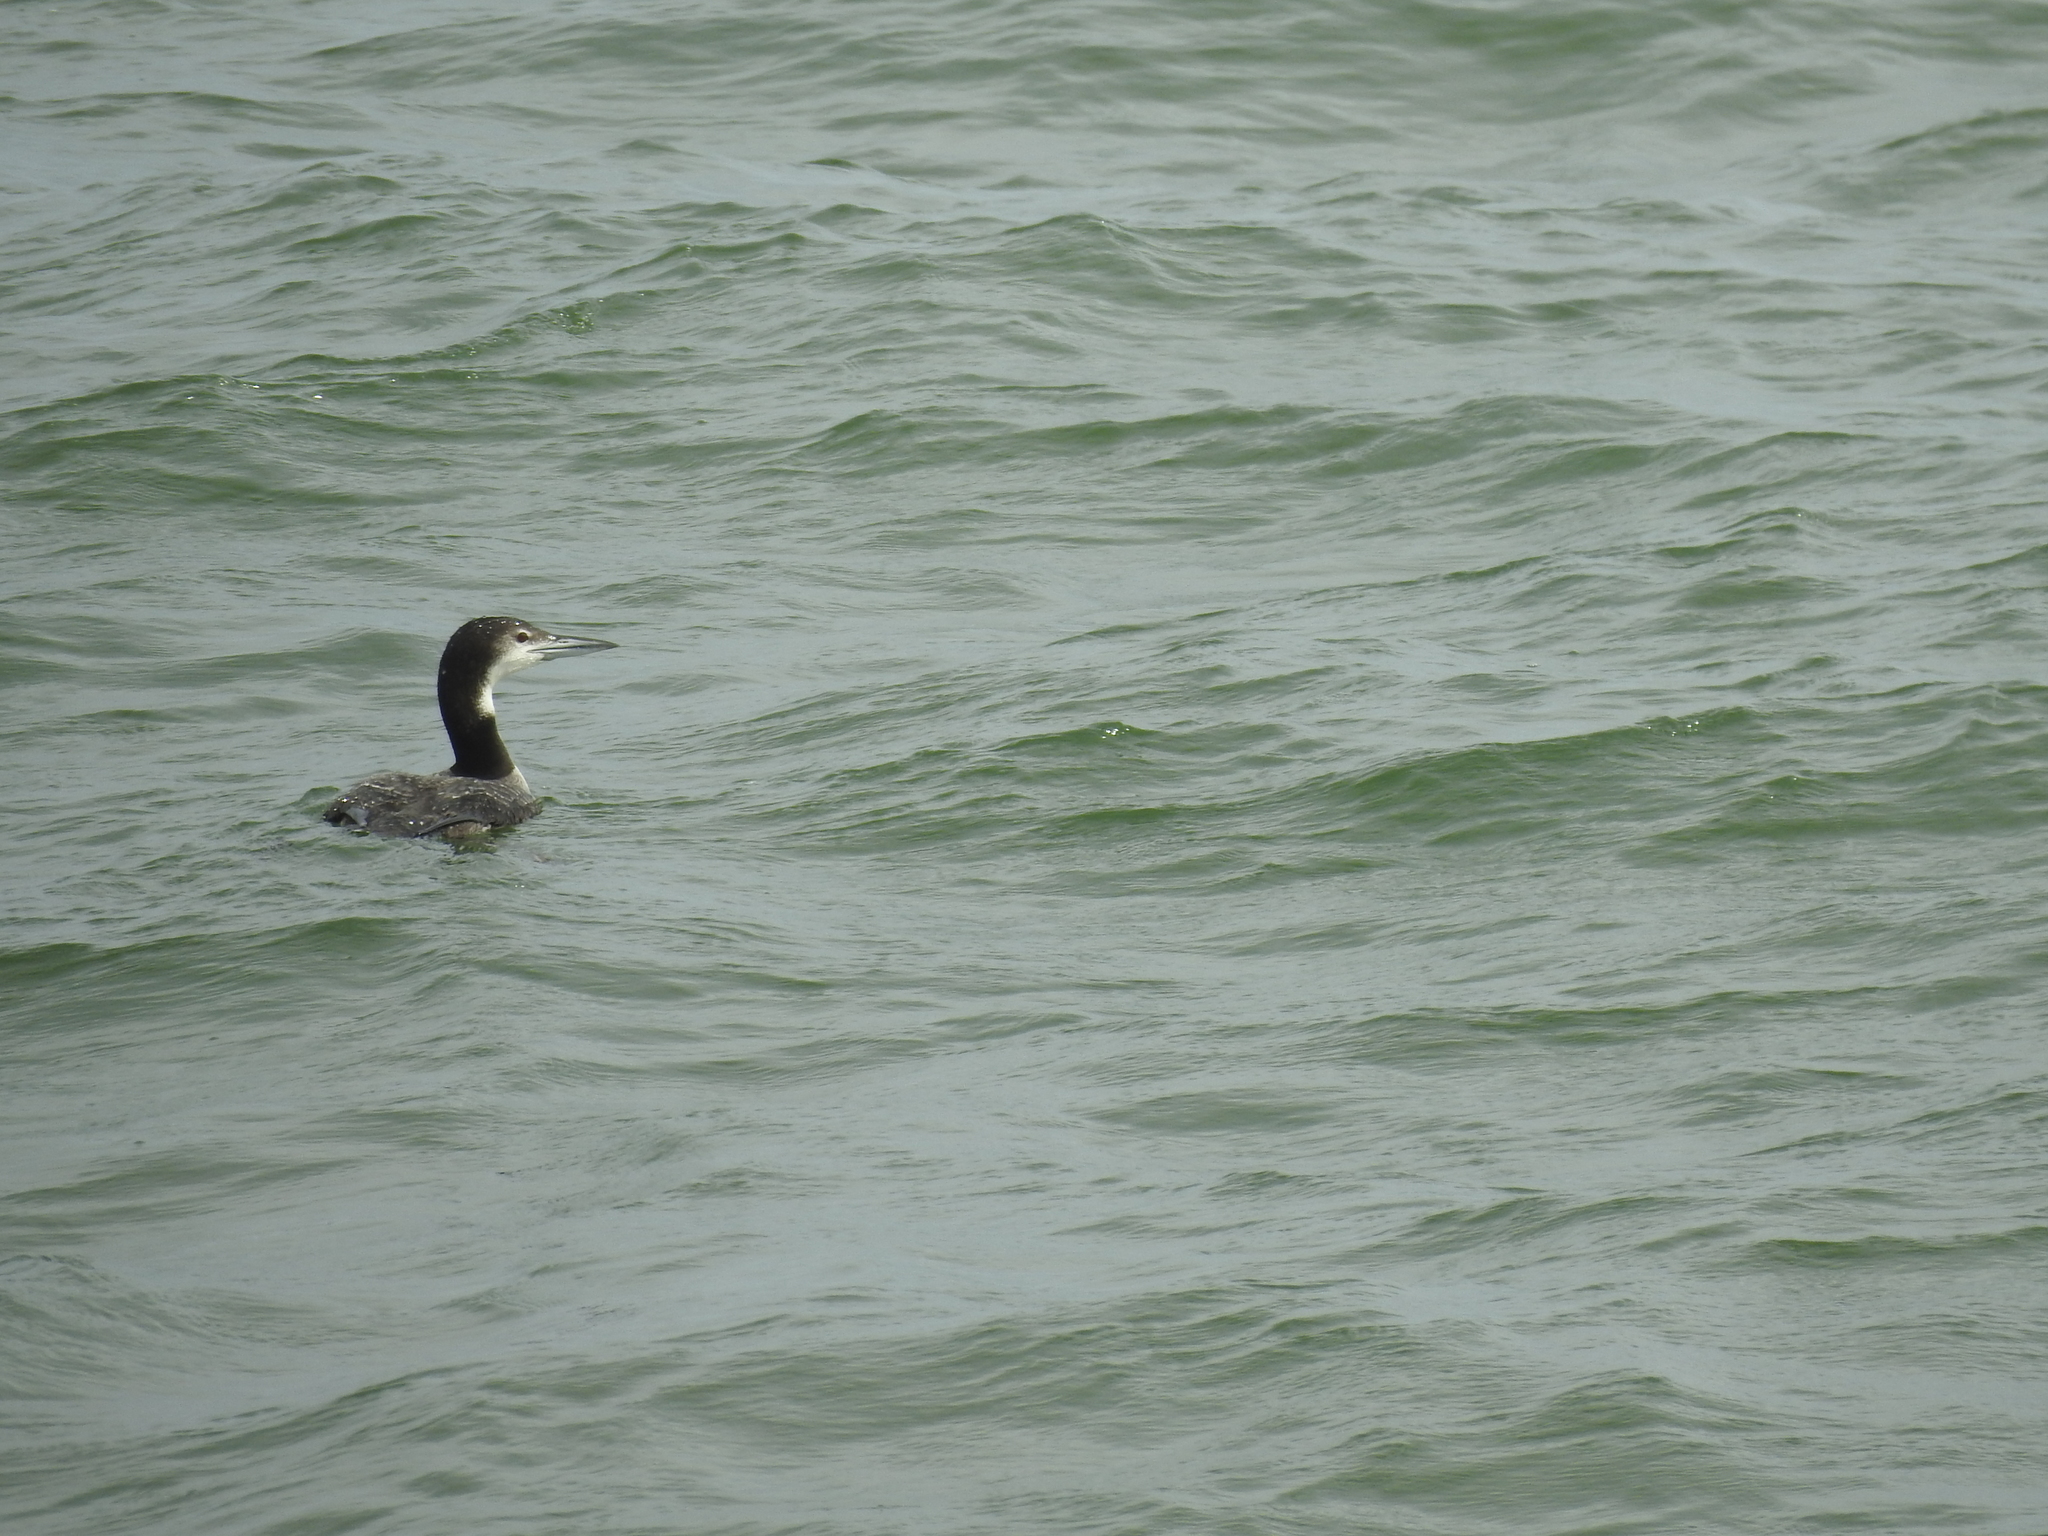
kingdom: Animalia
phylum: Chordata
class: Aves
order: Gaviiformes
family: Gaviidae
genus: Gavia
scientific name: Gavia immer
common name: Common loon
